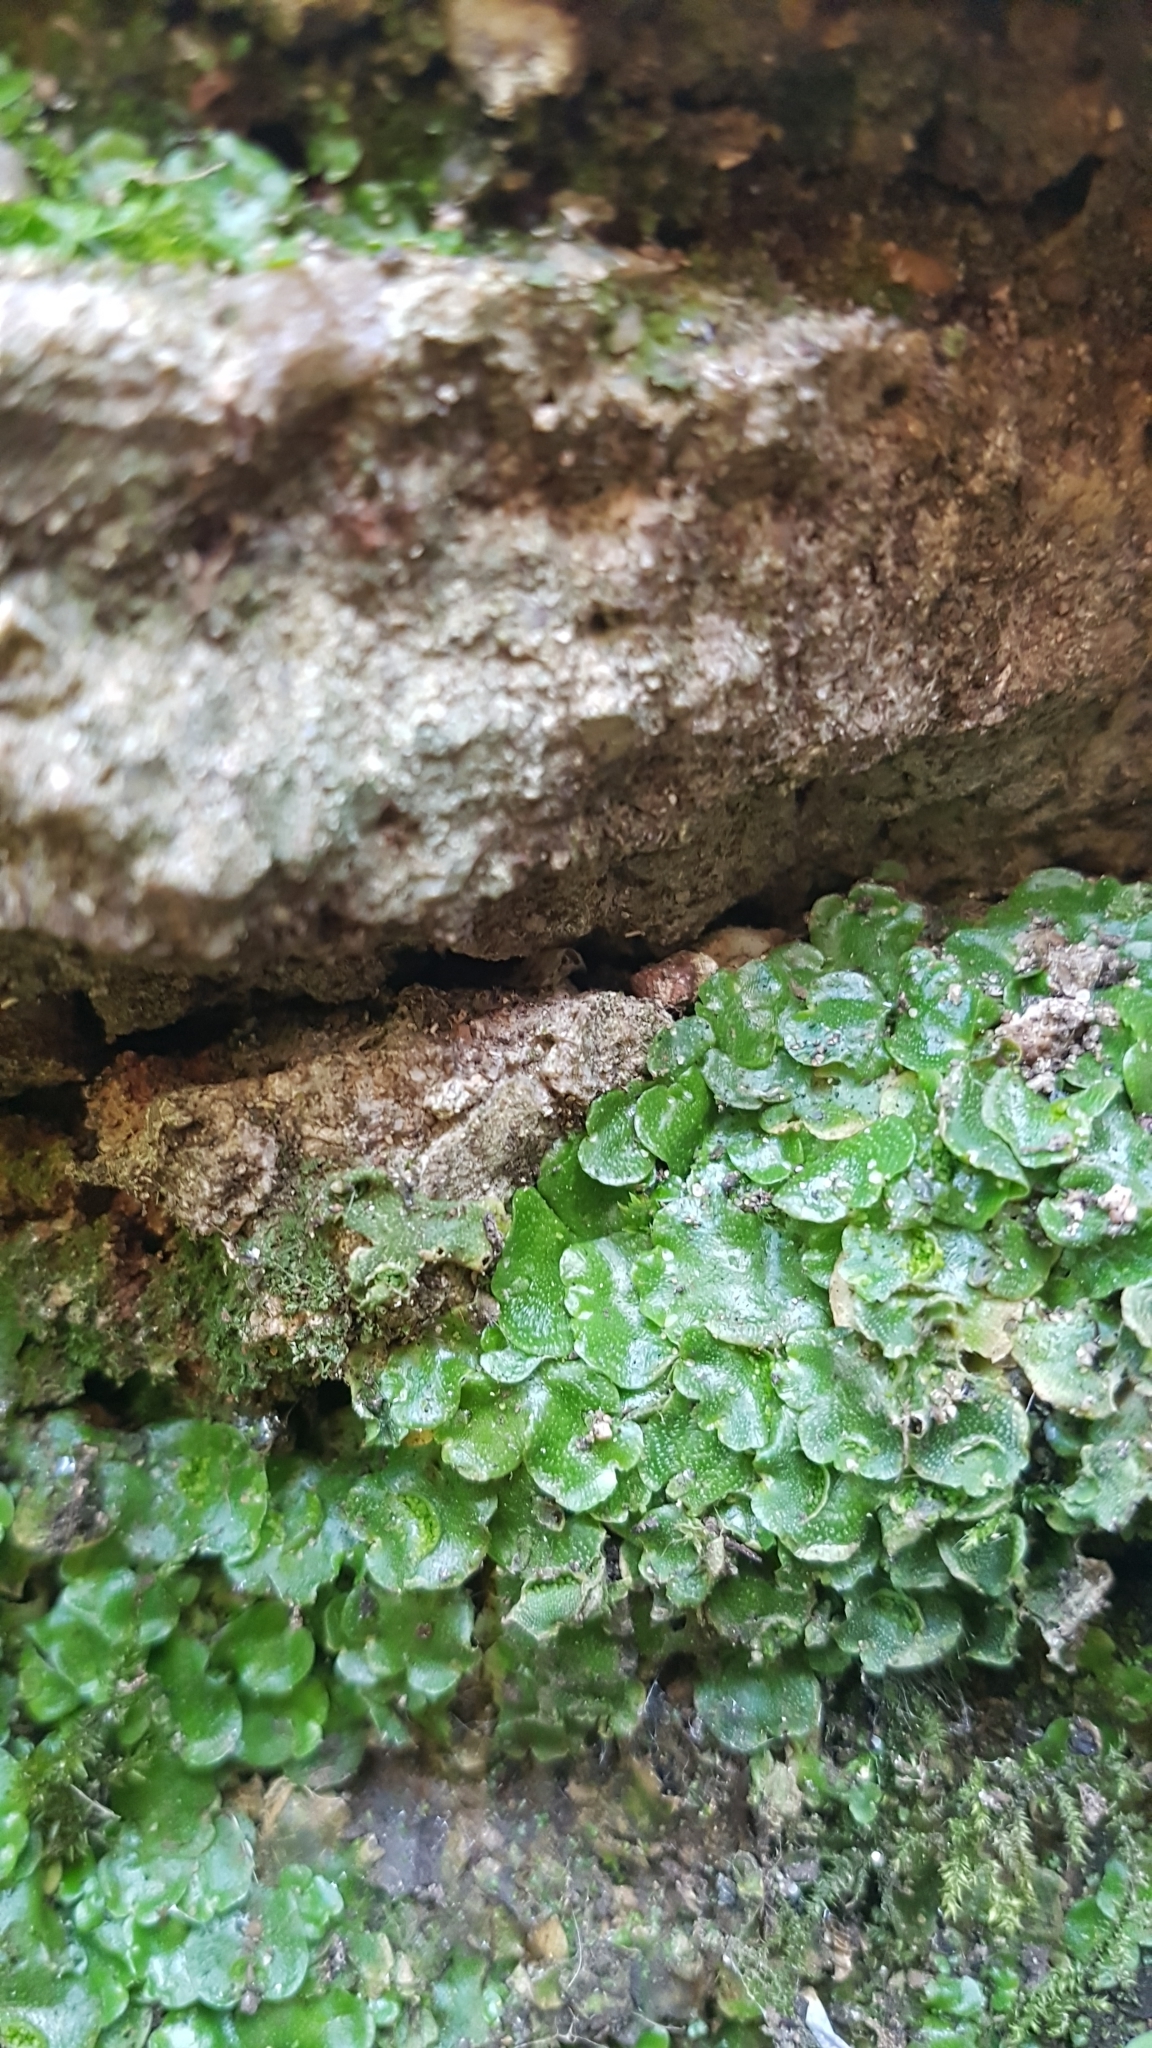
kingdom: Plantae
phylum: Marchantiophyta
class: Marchantiopsida
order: Lunulariales
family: Lunulariaceae
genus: Lunularia
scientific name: Lunularia cruciata
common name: Crescent-cup liverwort
